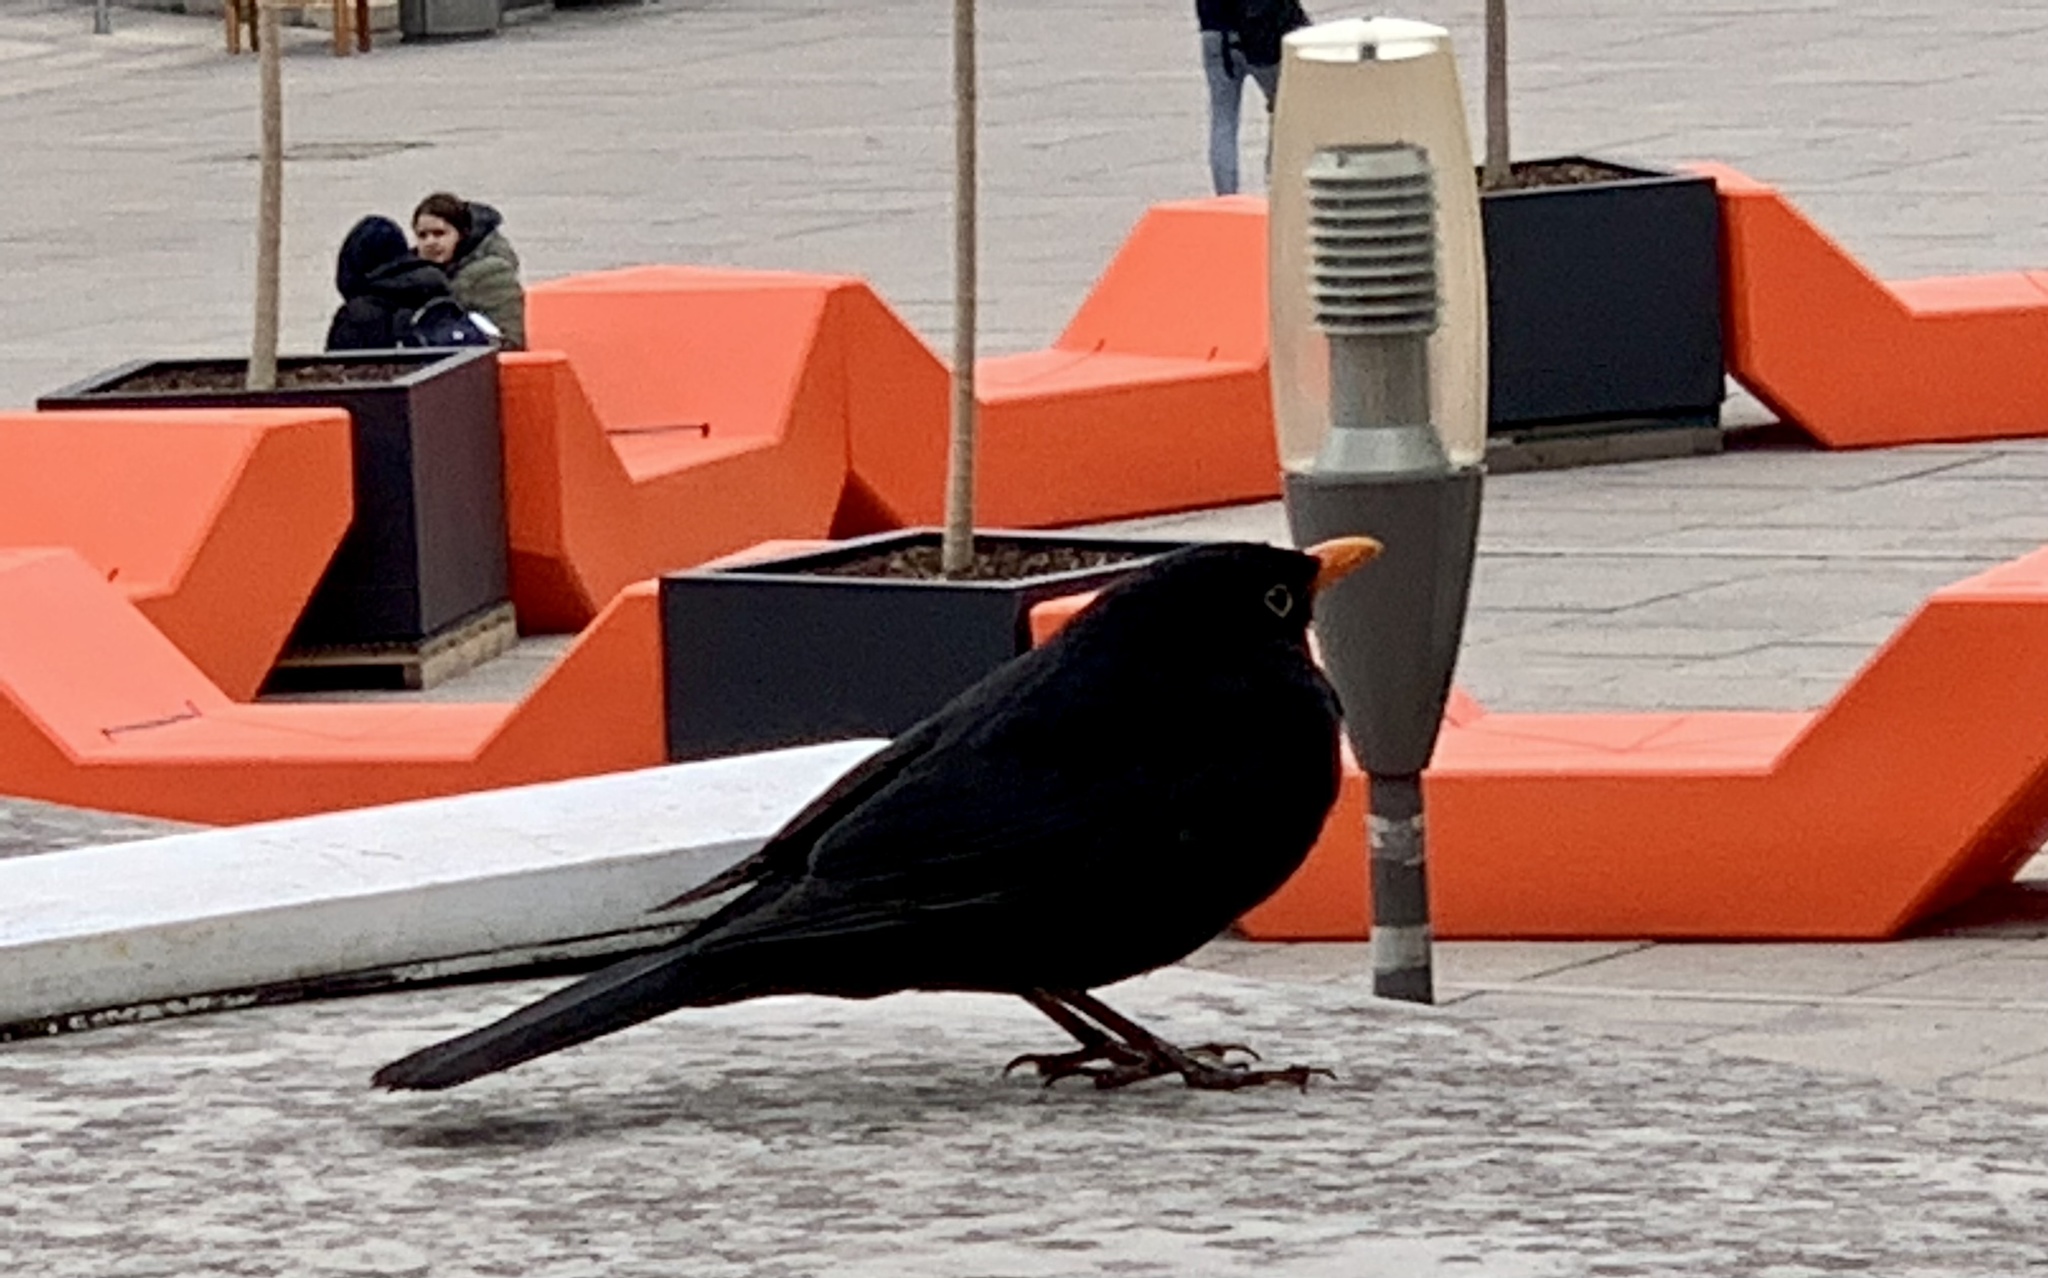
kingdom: Animalia
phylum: Chordata
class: Aves
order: Passeriformes
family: Turdidae
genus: Turdus
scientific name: Turdus merula
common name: Common blackbird
